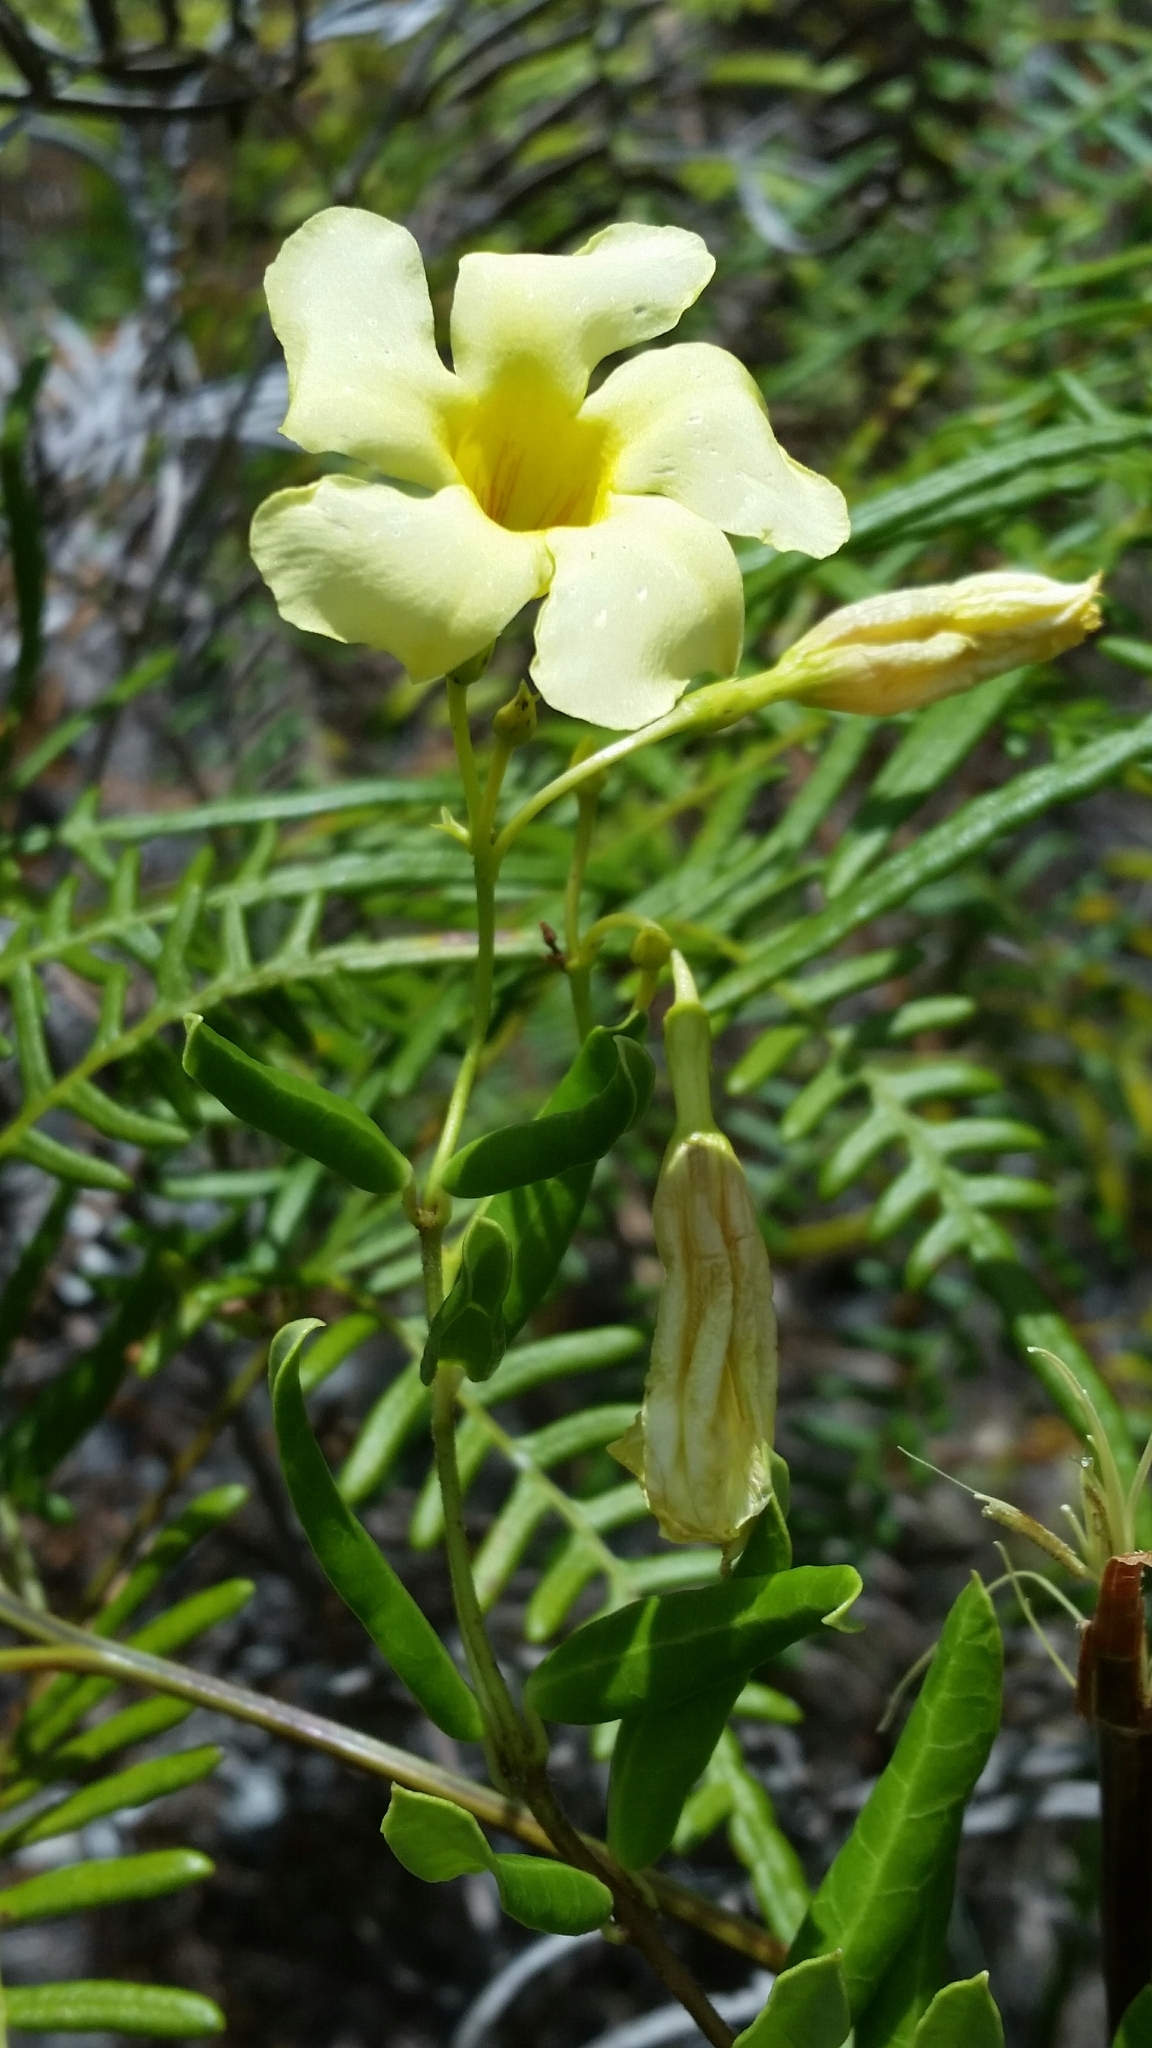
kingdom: Plantae
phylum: Tracheophyta
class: Magnoliopsida
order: Gentianales
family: Apocynaceae
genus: Angadenia
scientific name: Angadenia berteroi
